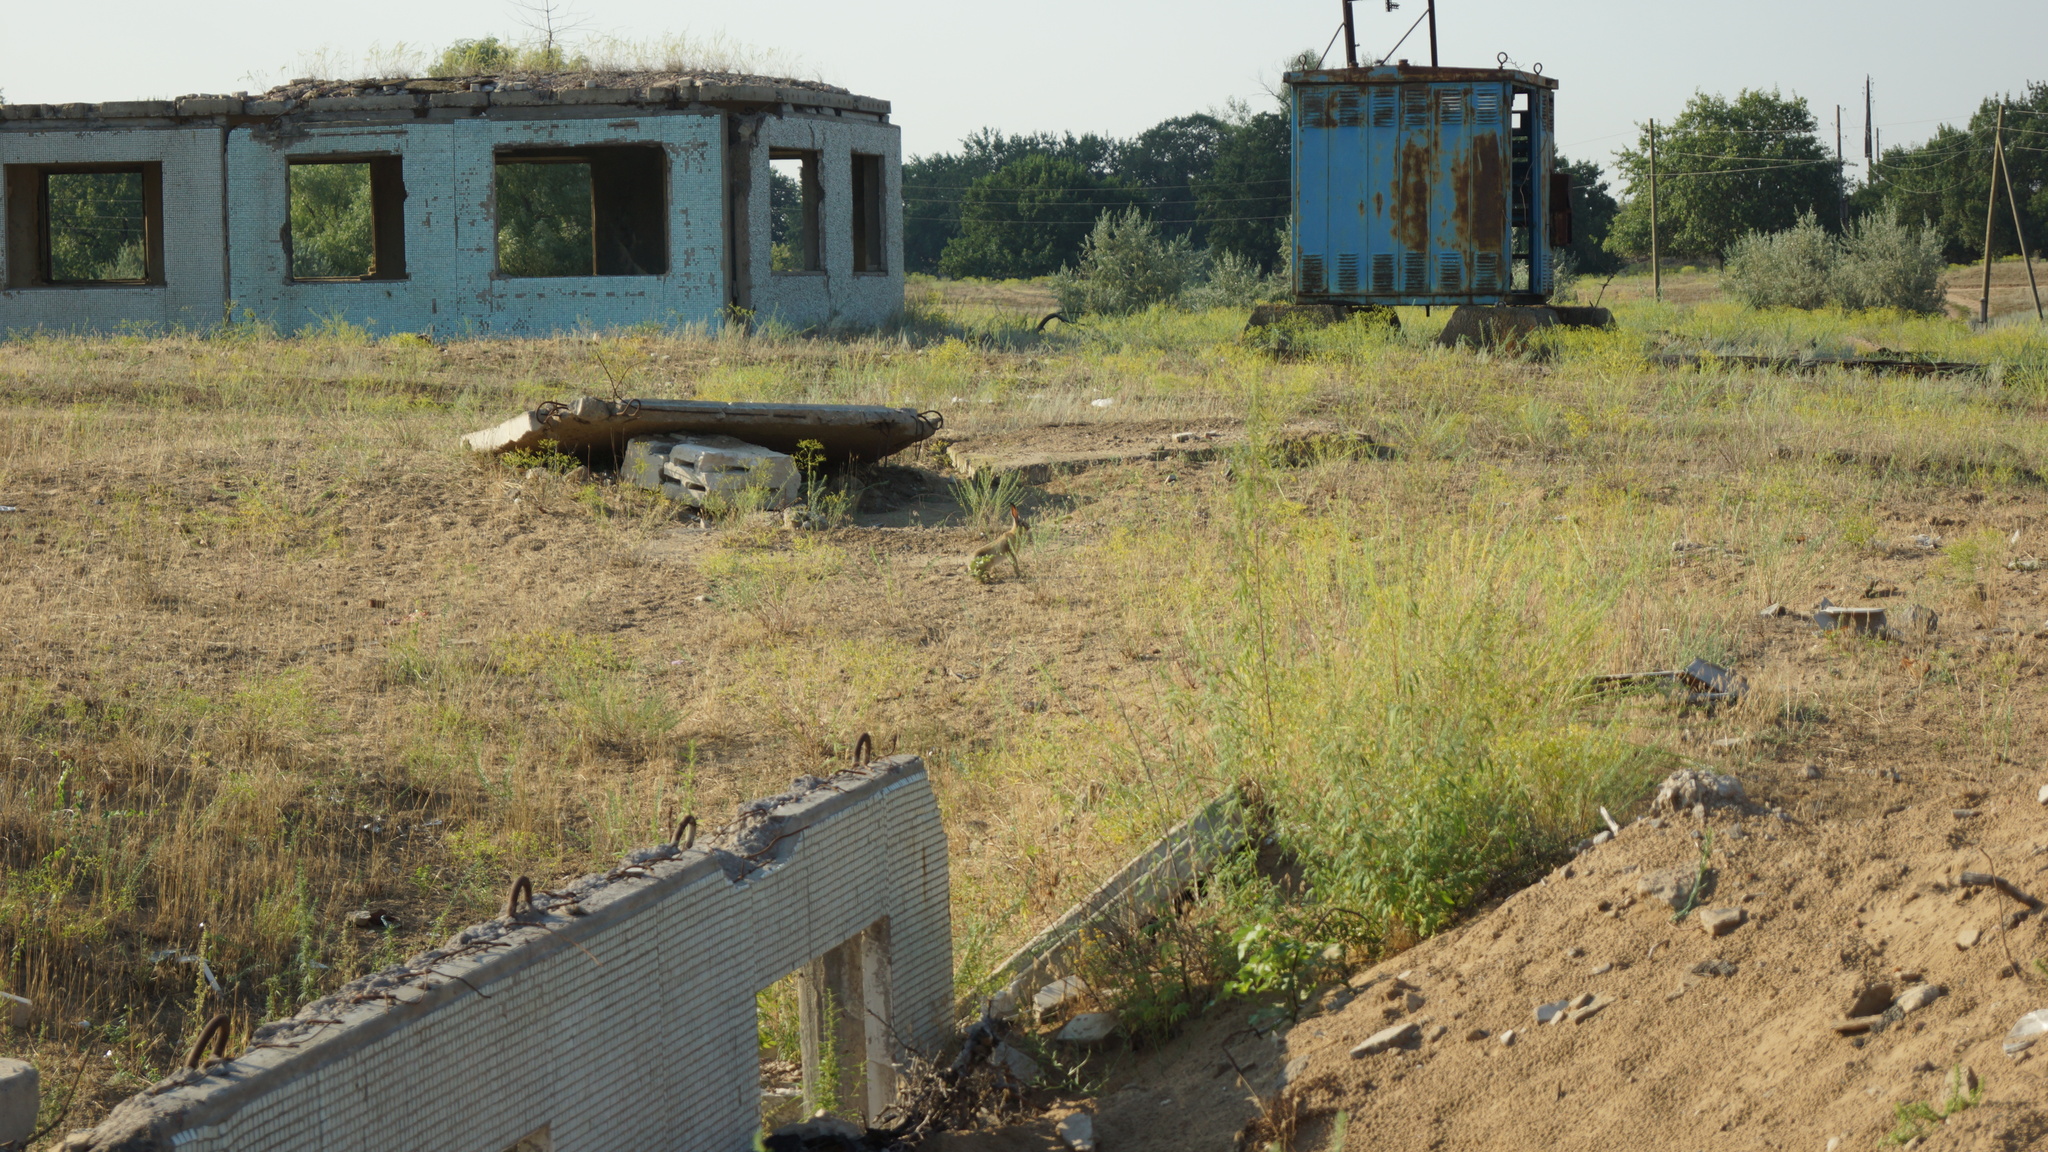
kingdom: Animalia
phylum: Chordata
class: Mammalia
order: Lagomorpha
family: Leporidae
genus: Lepus
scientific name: Lepus europaeus
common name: European hare
